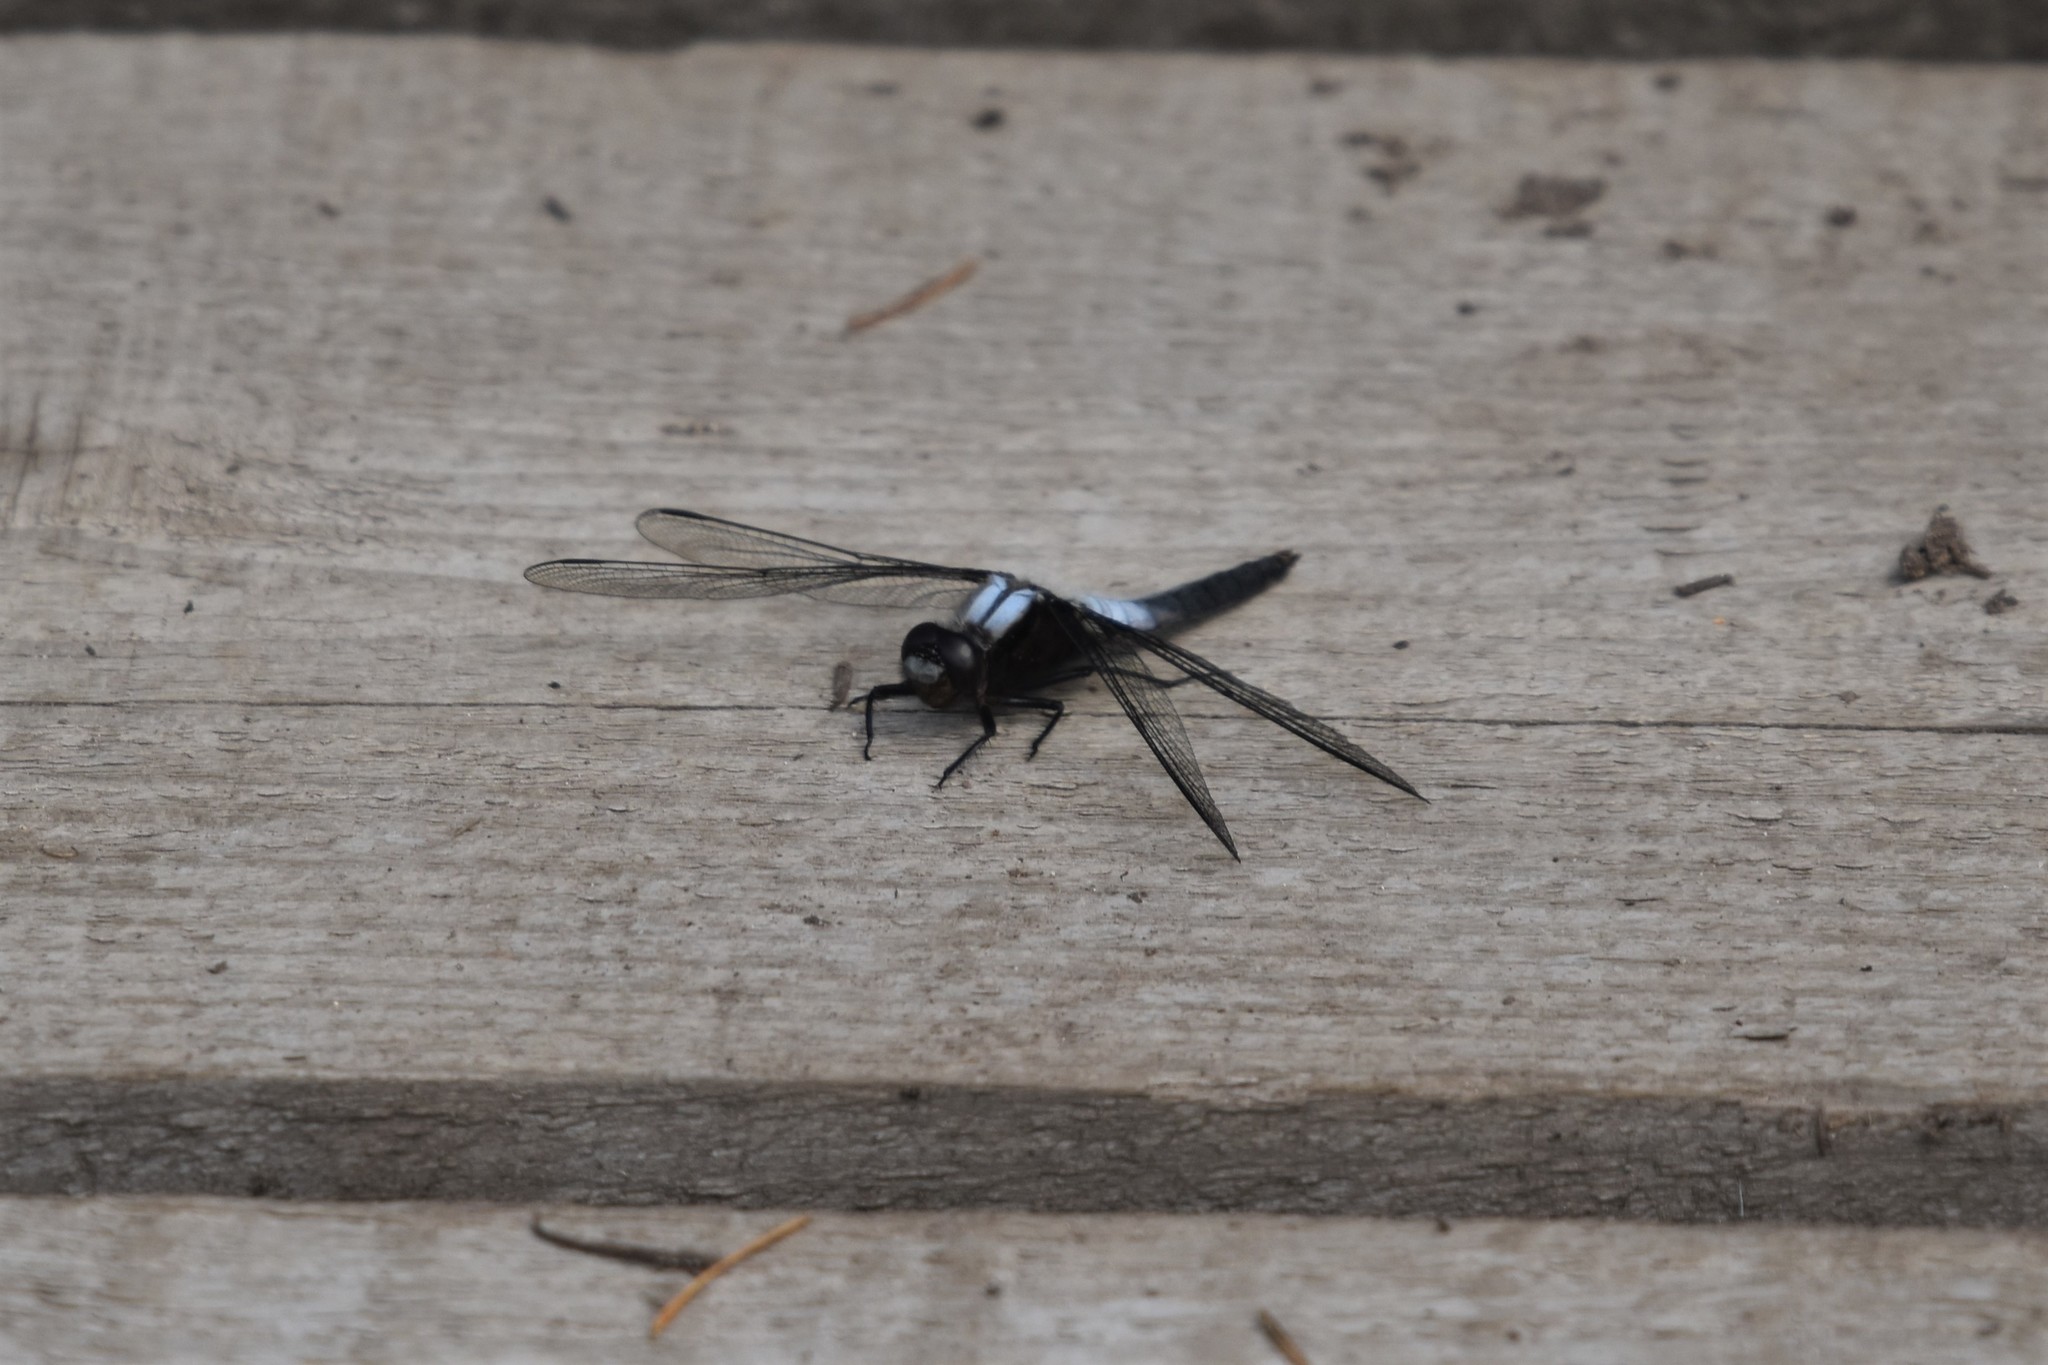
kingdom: Animalia
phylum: Arthropoda
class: Insecta
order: Odonata
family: Libellulidae
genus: Ladona
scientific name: Ladona julia
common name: Chalk-fronted corporal
